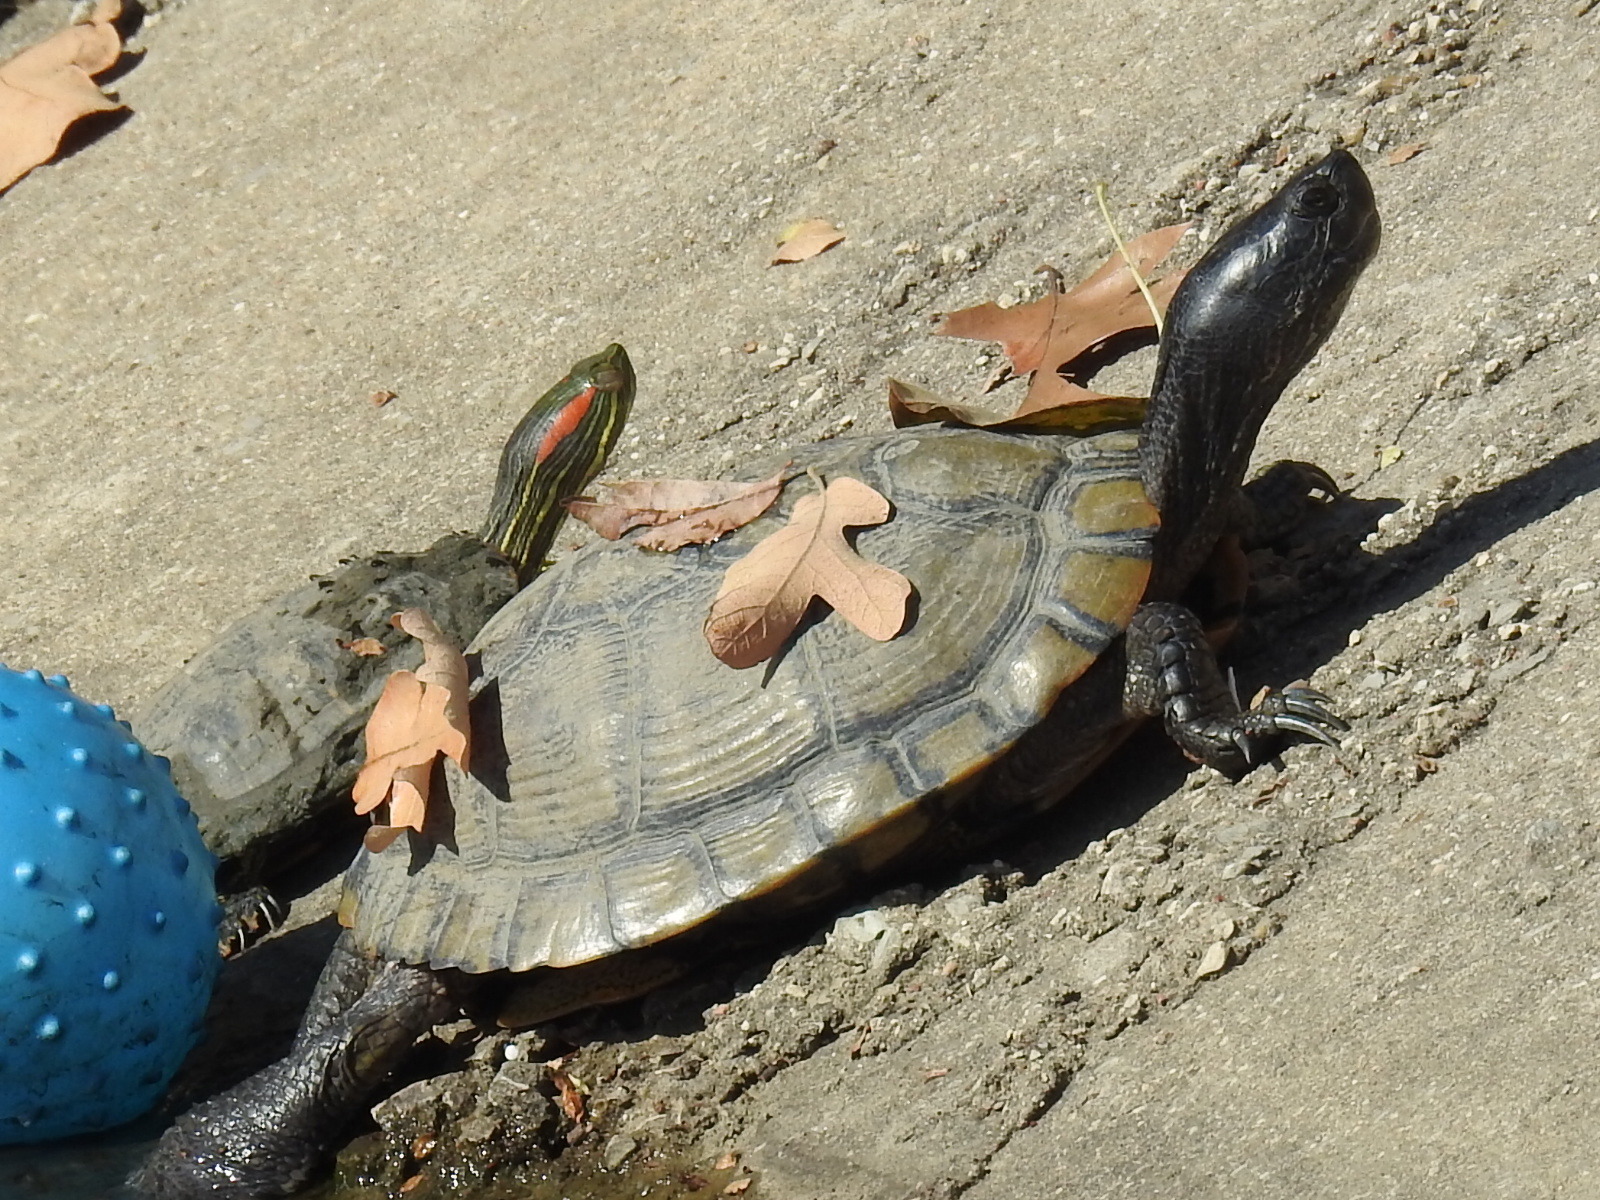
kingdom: Animalia
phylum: Chordata
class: Testudines
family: Emydidae
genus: Trachemys
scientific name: Trachemys scripta
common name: Slider
